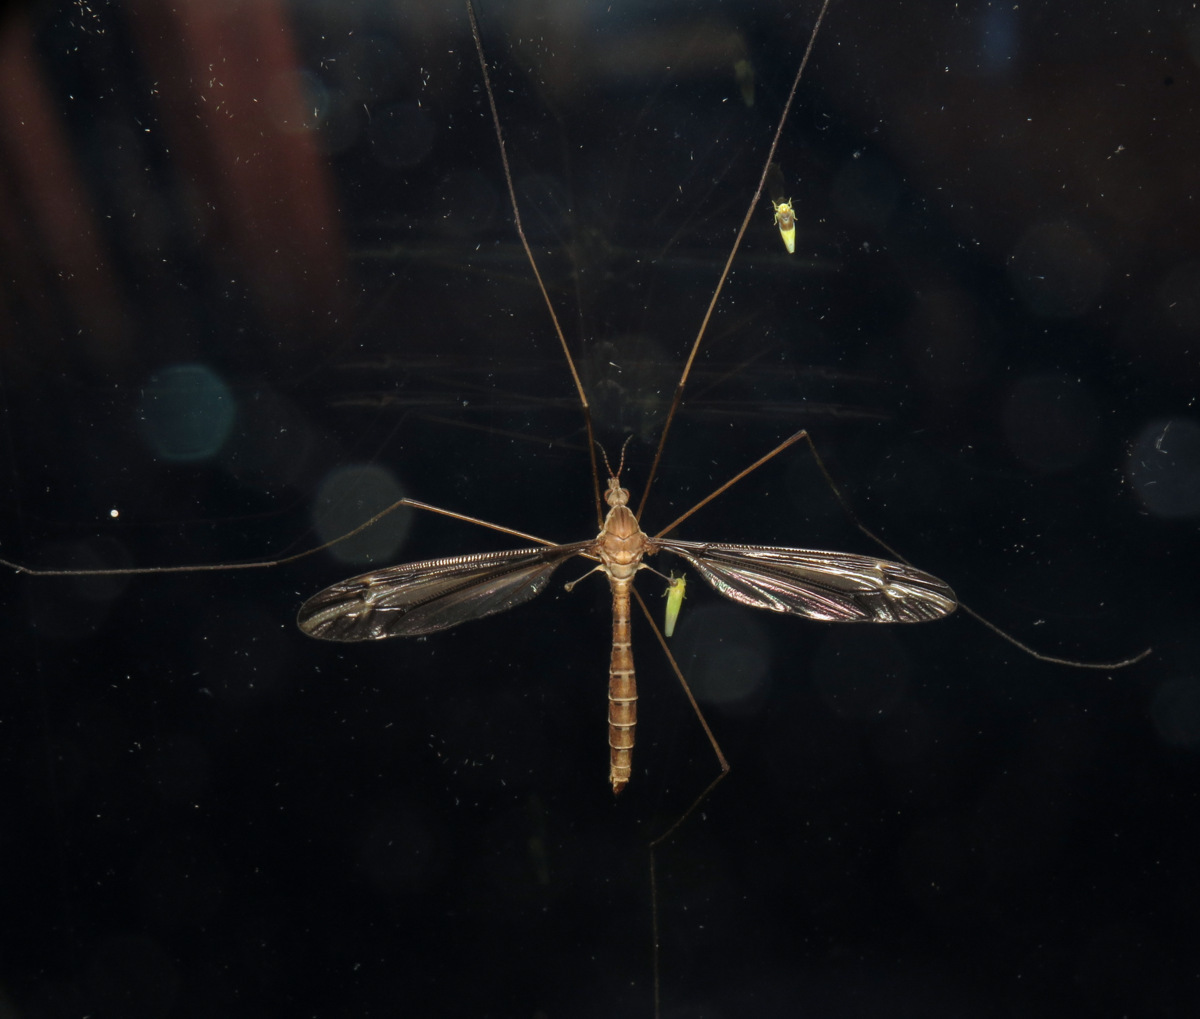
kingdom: Animalia
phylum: Arthropoda
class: Insecta
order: Diptera
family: Tipulidae
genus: Tipula
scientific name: Tipula furca
